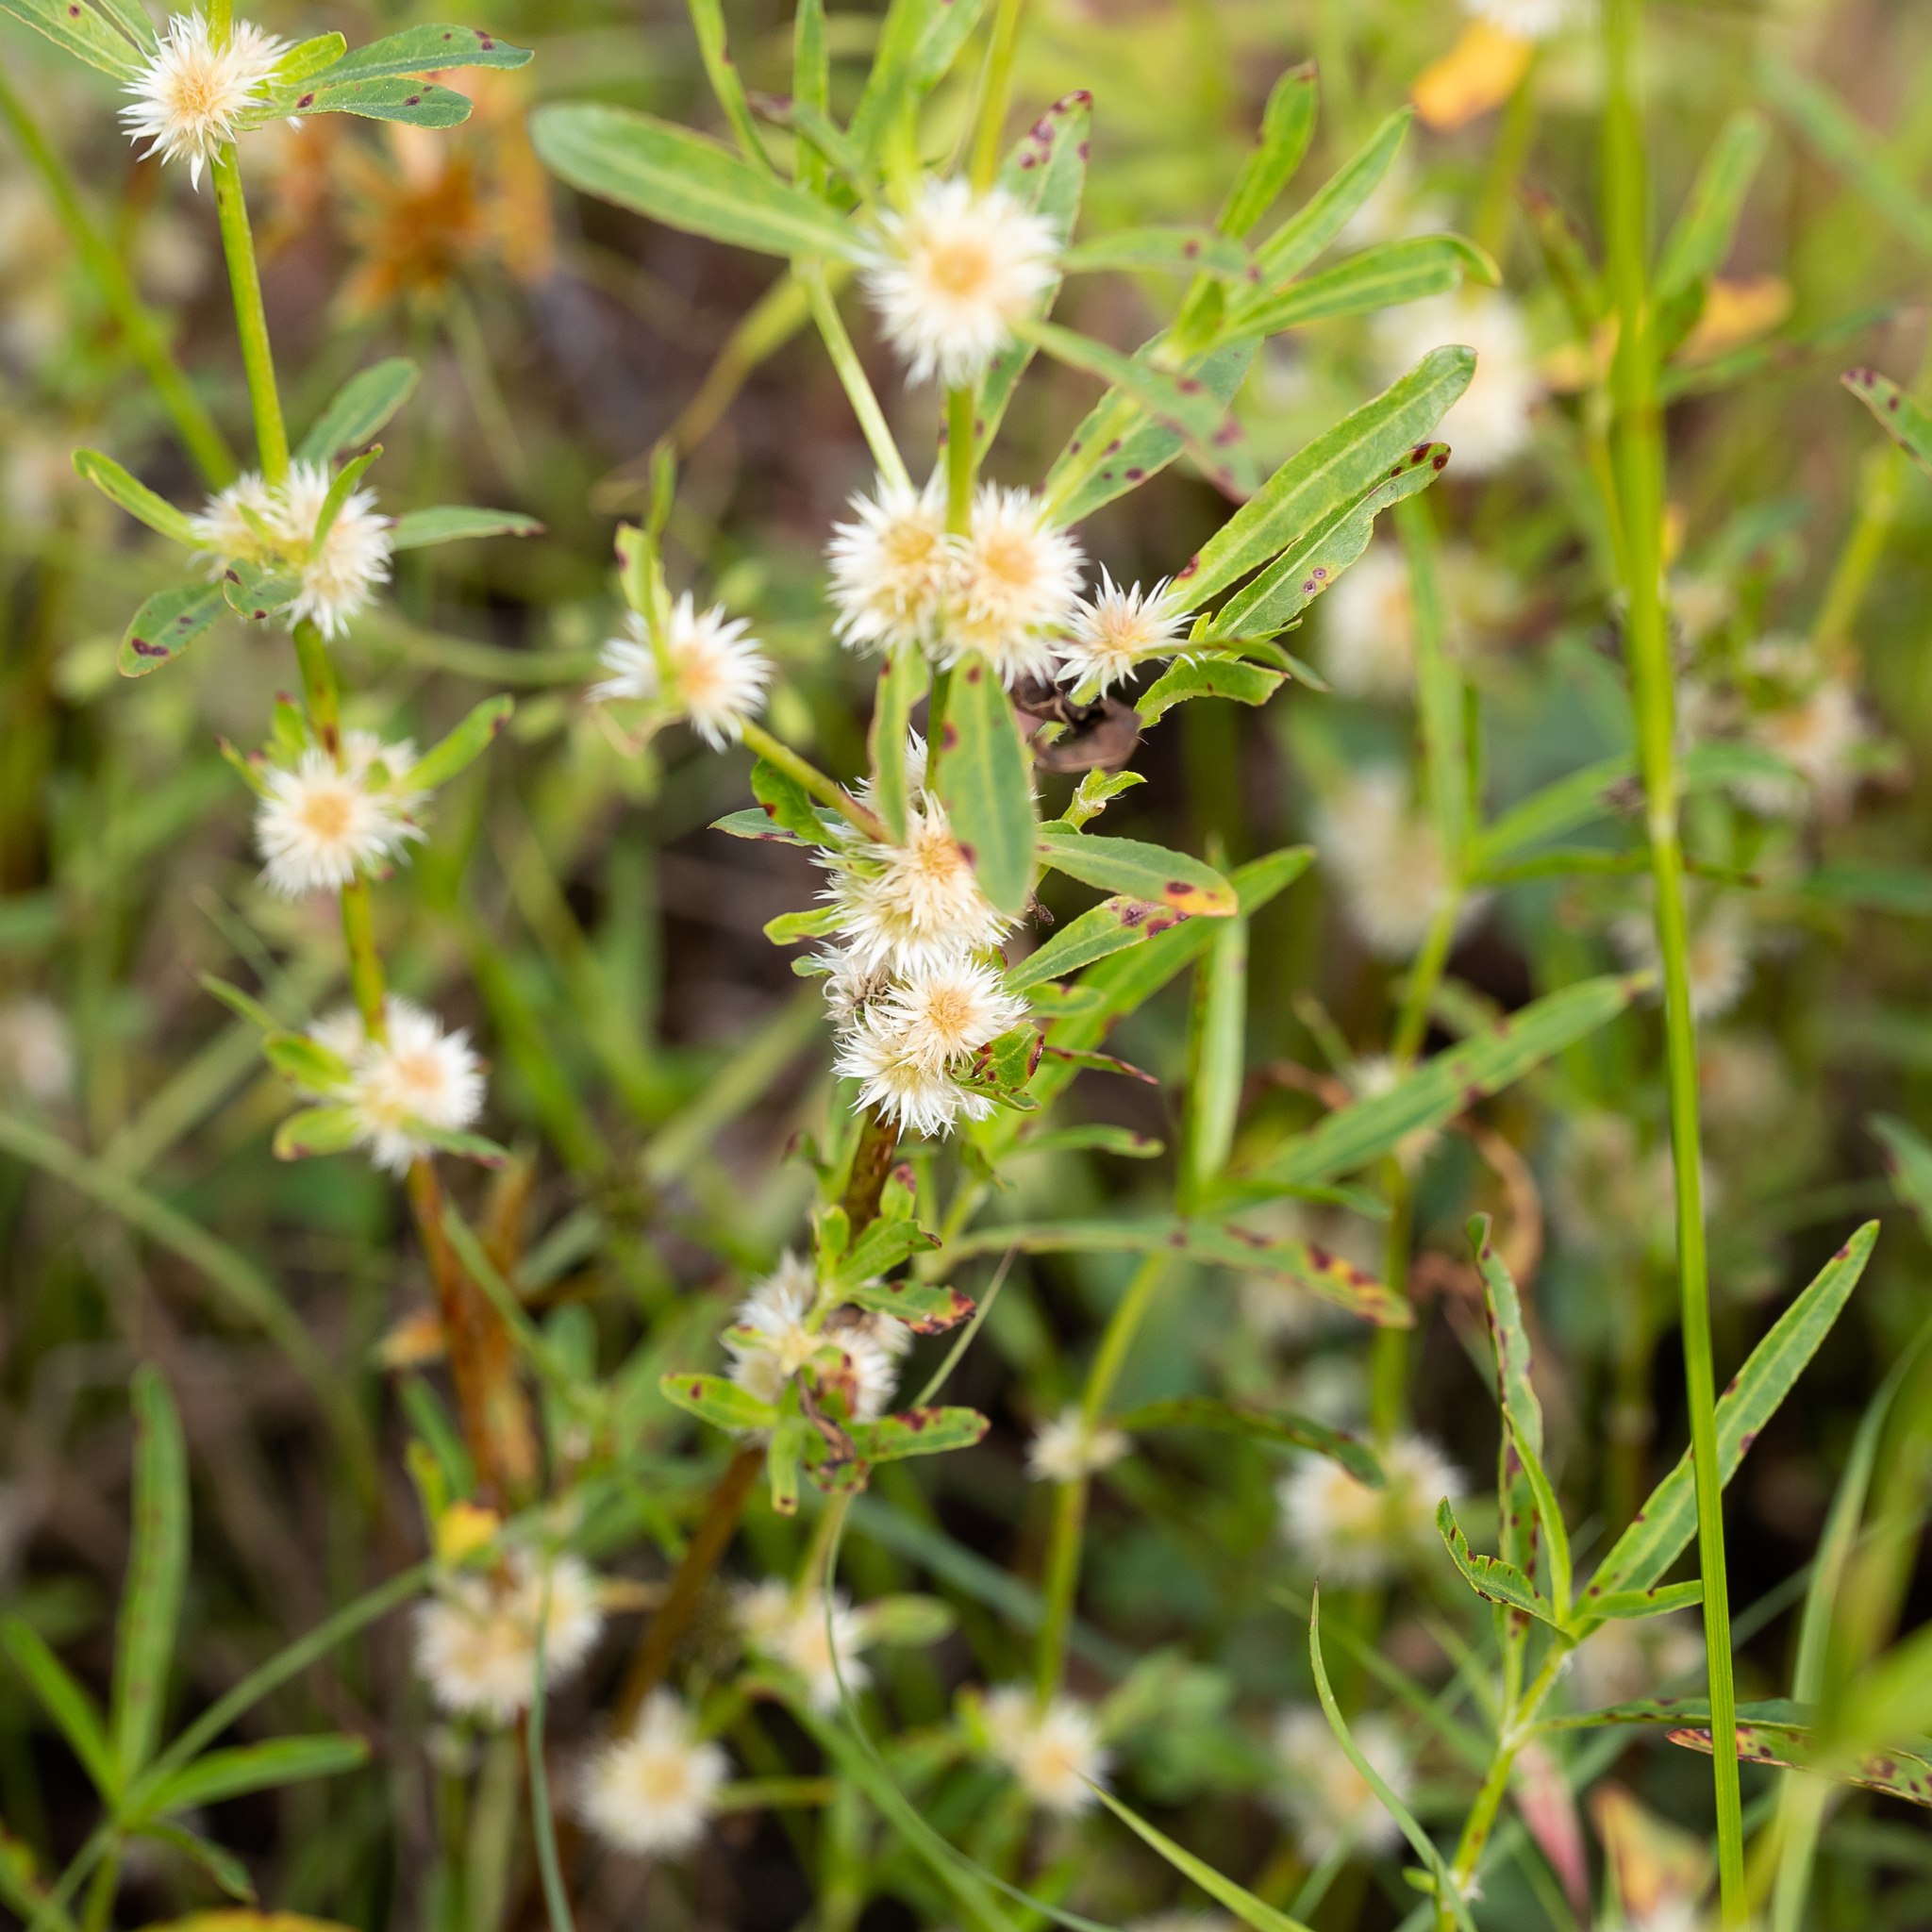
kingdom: Plantae
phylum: Tracheophyta
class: Magnoliopsida
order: Caryophyllales
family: Amaranthaceae
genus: Alternanthera
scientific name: Alternanthera sessilis
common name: Sessile joyweed
